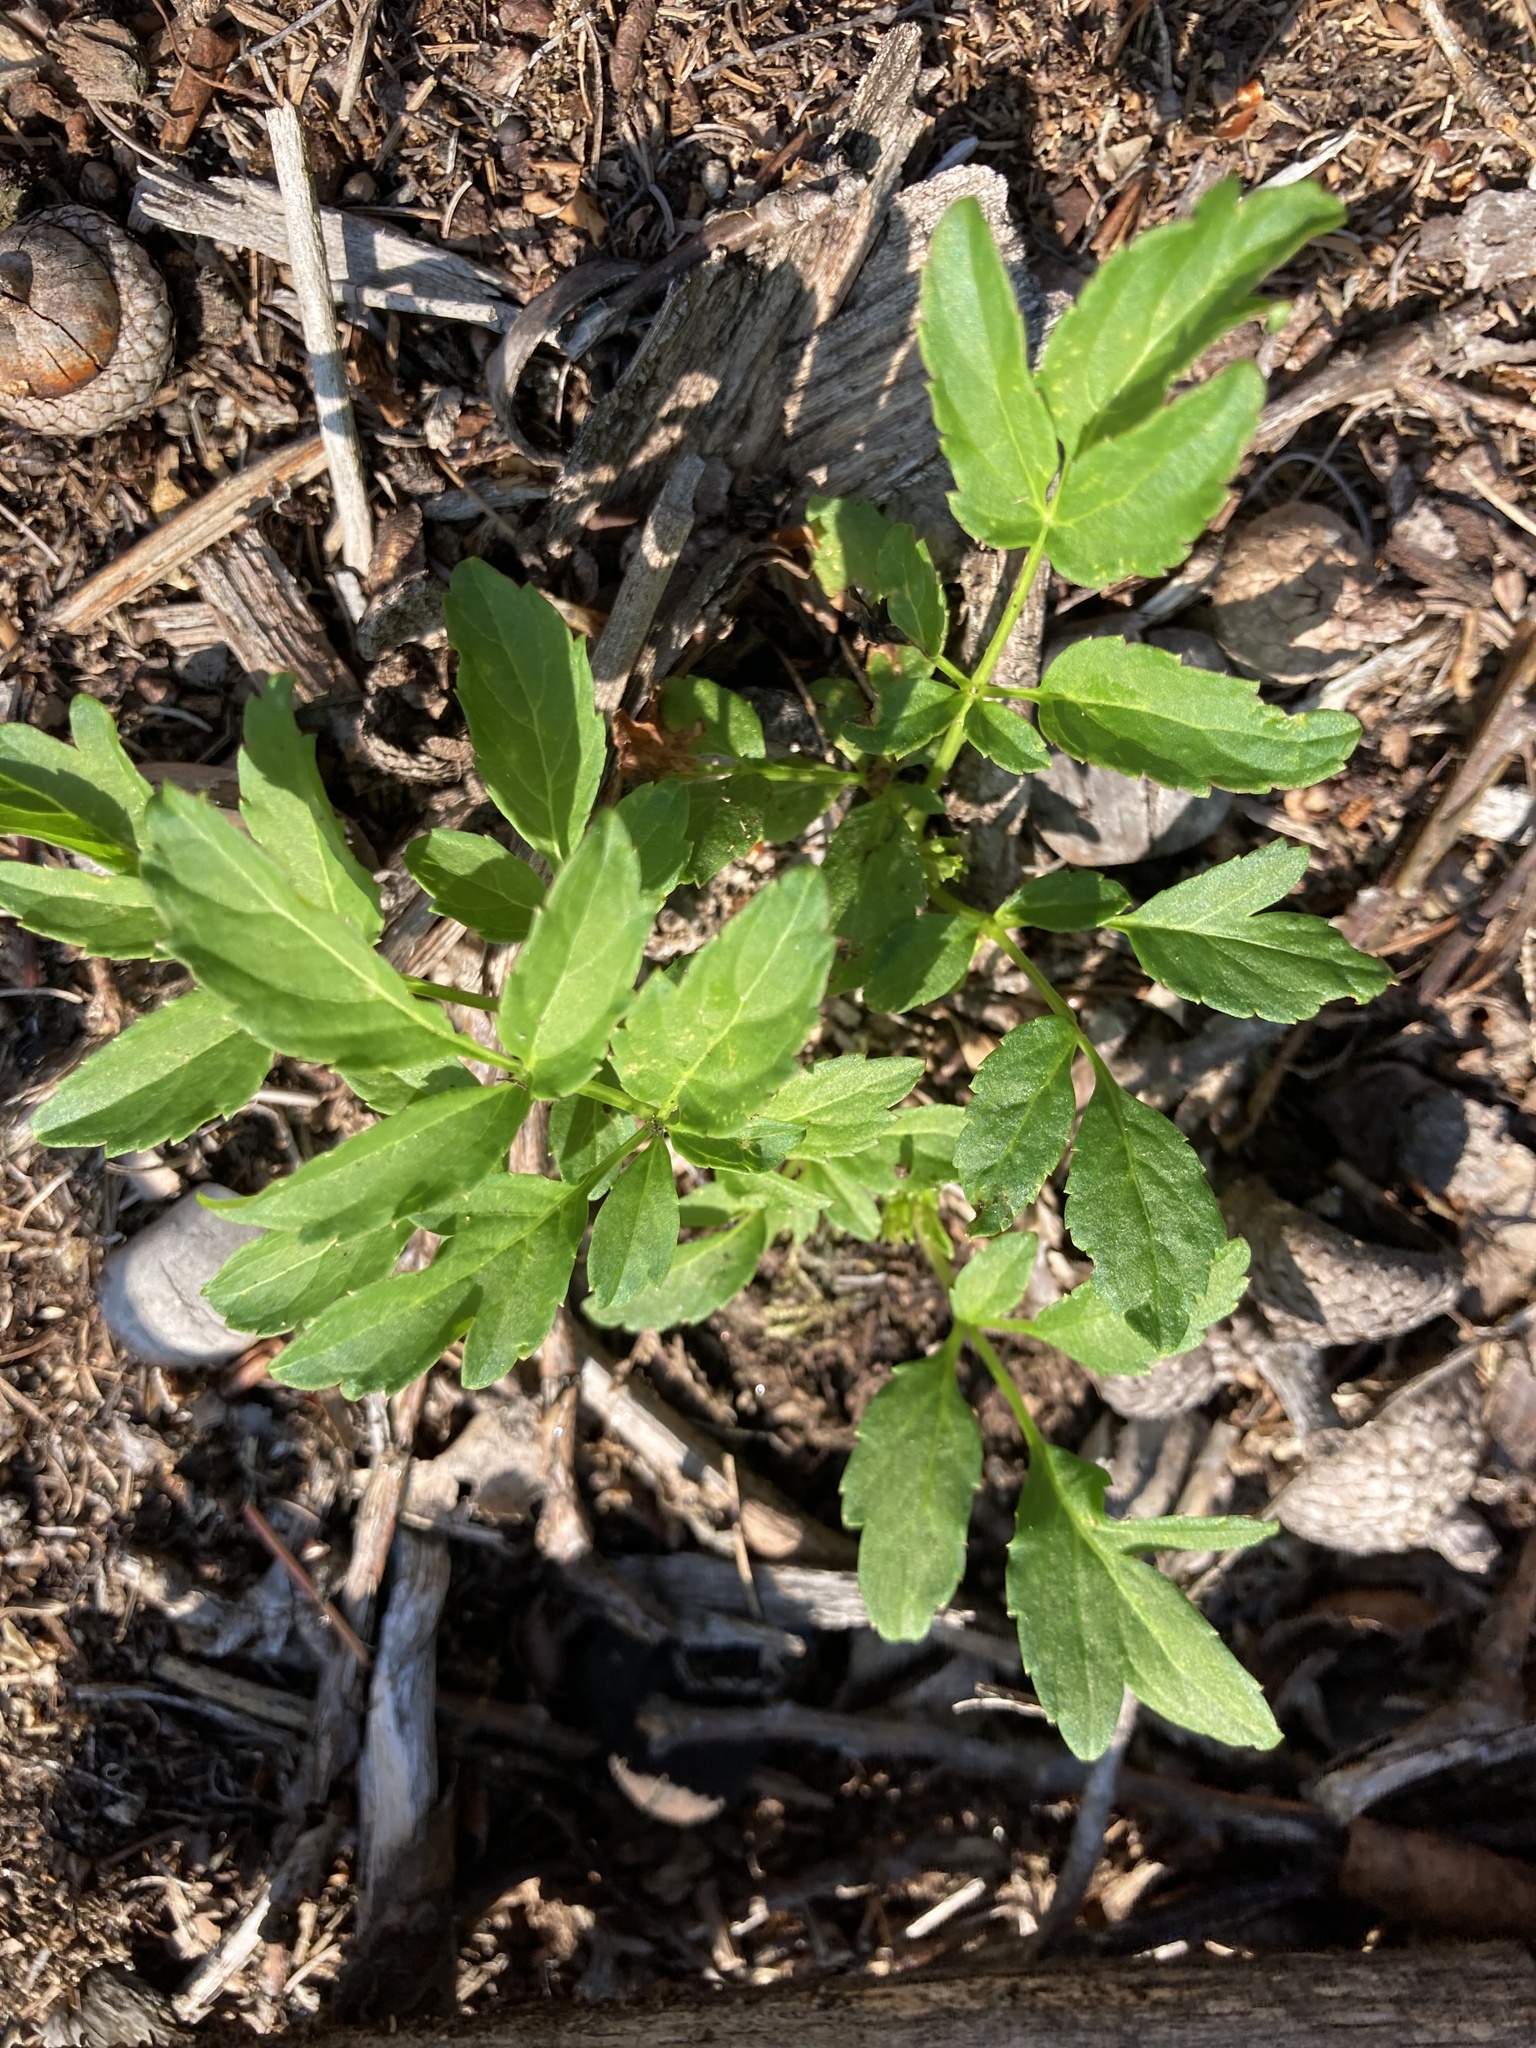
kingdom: Plantae
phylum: Tracheophyta
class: Magnoliopsida
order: Apiales
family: Araliaceae
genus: Aralia
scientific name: Aralia hispida
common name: Bristly sarsaparilla
